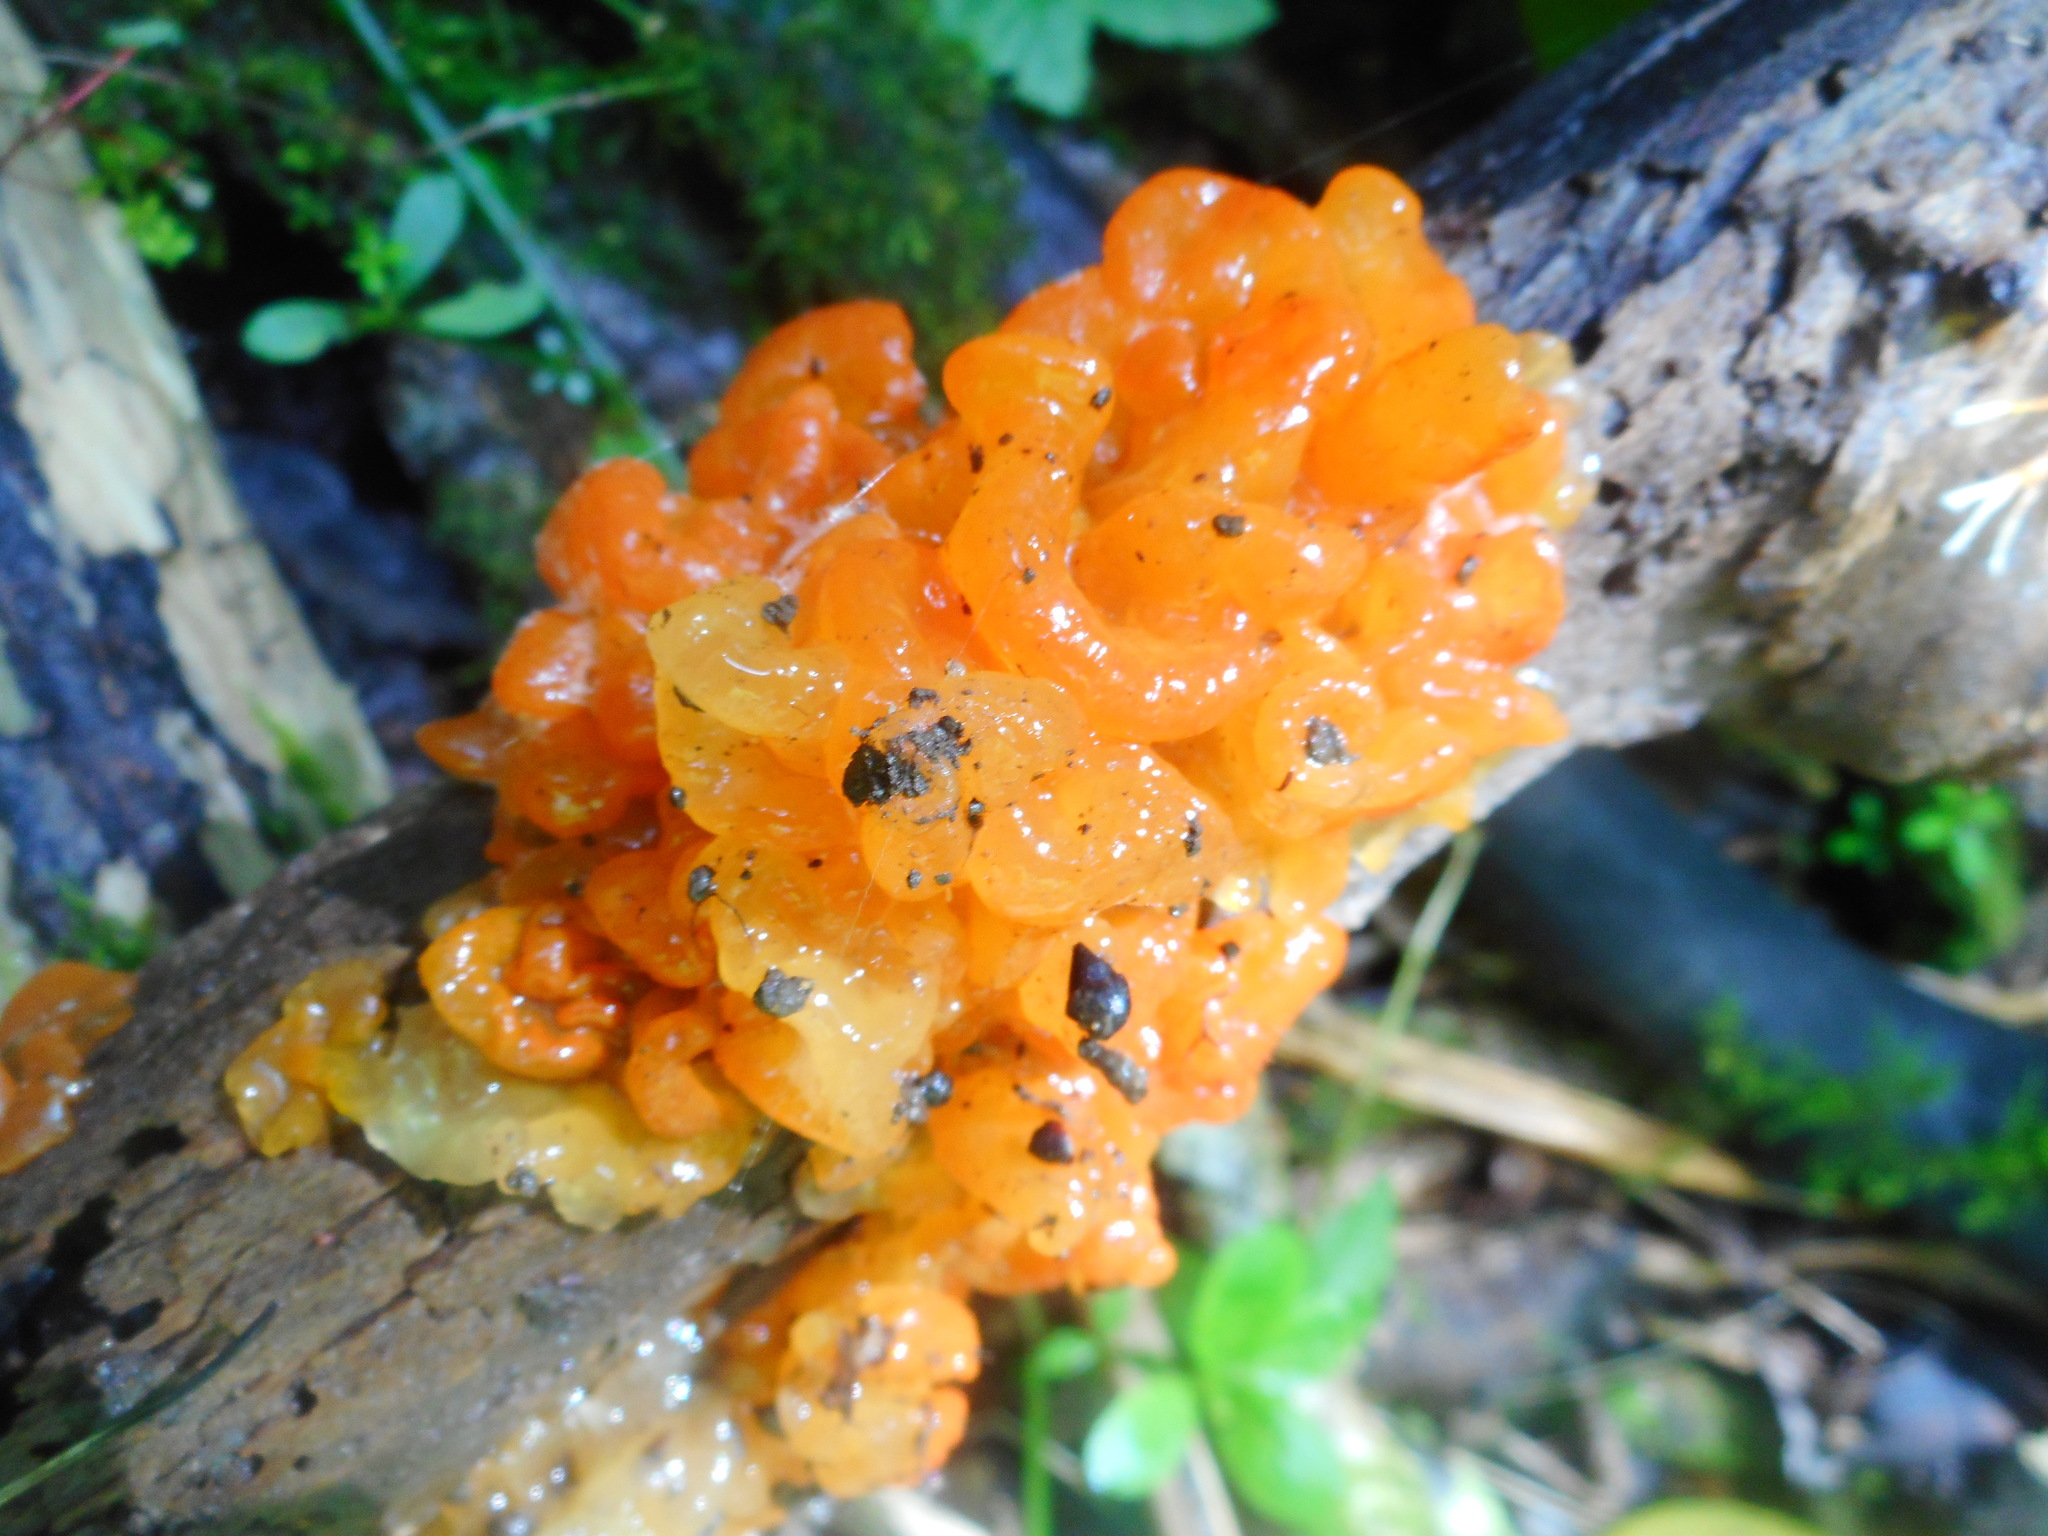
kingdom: Fungi
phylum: Basidiomycota
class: Tremellomycetes
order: Tremellales
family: Tremellaceae
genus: Tremella
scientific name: Tremella samoensis
